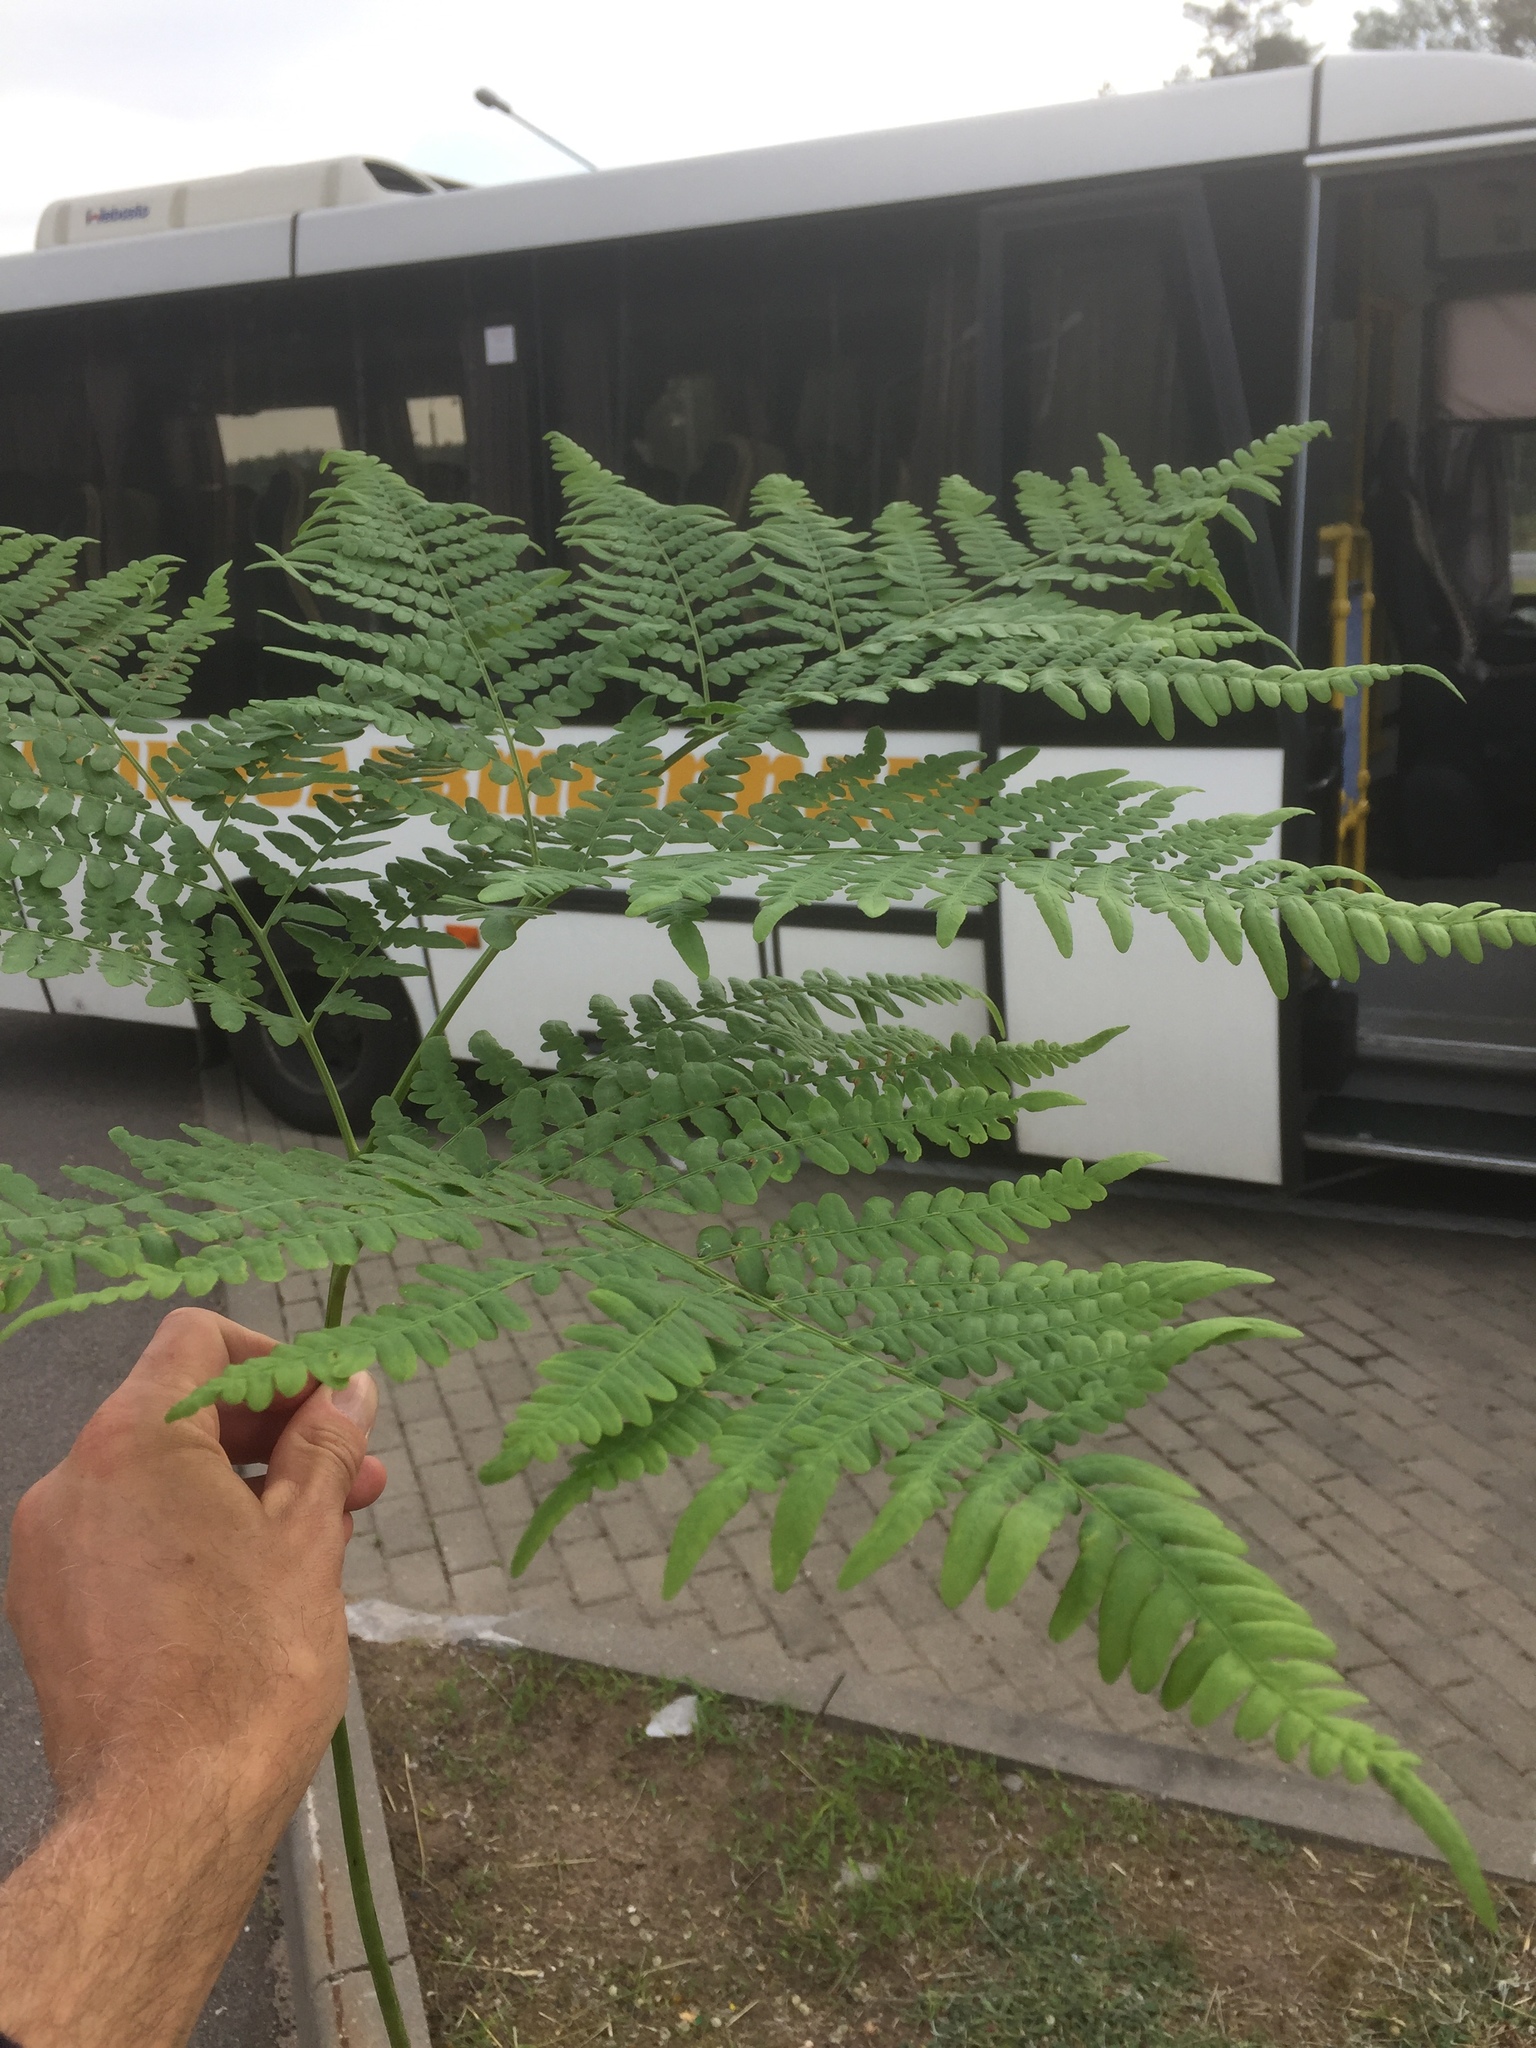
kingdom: Plantae
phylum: Tracheophyta
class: Polypodiopsida
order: Polypodiales
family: Dennstaedtiaceae
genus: Pteridium
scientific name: Pteridium aquilinum
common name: Bracken
